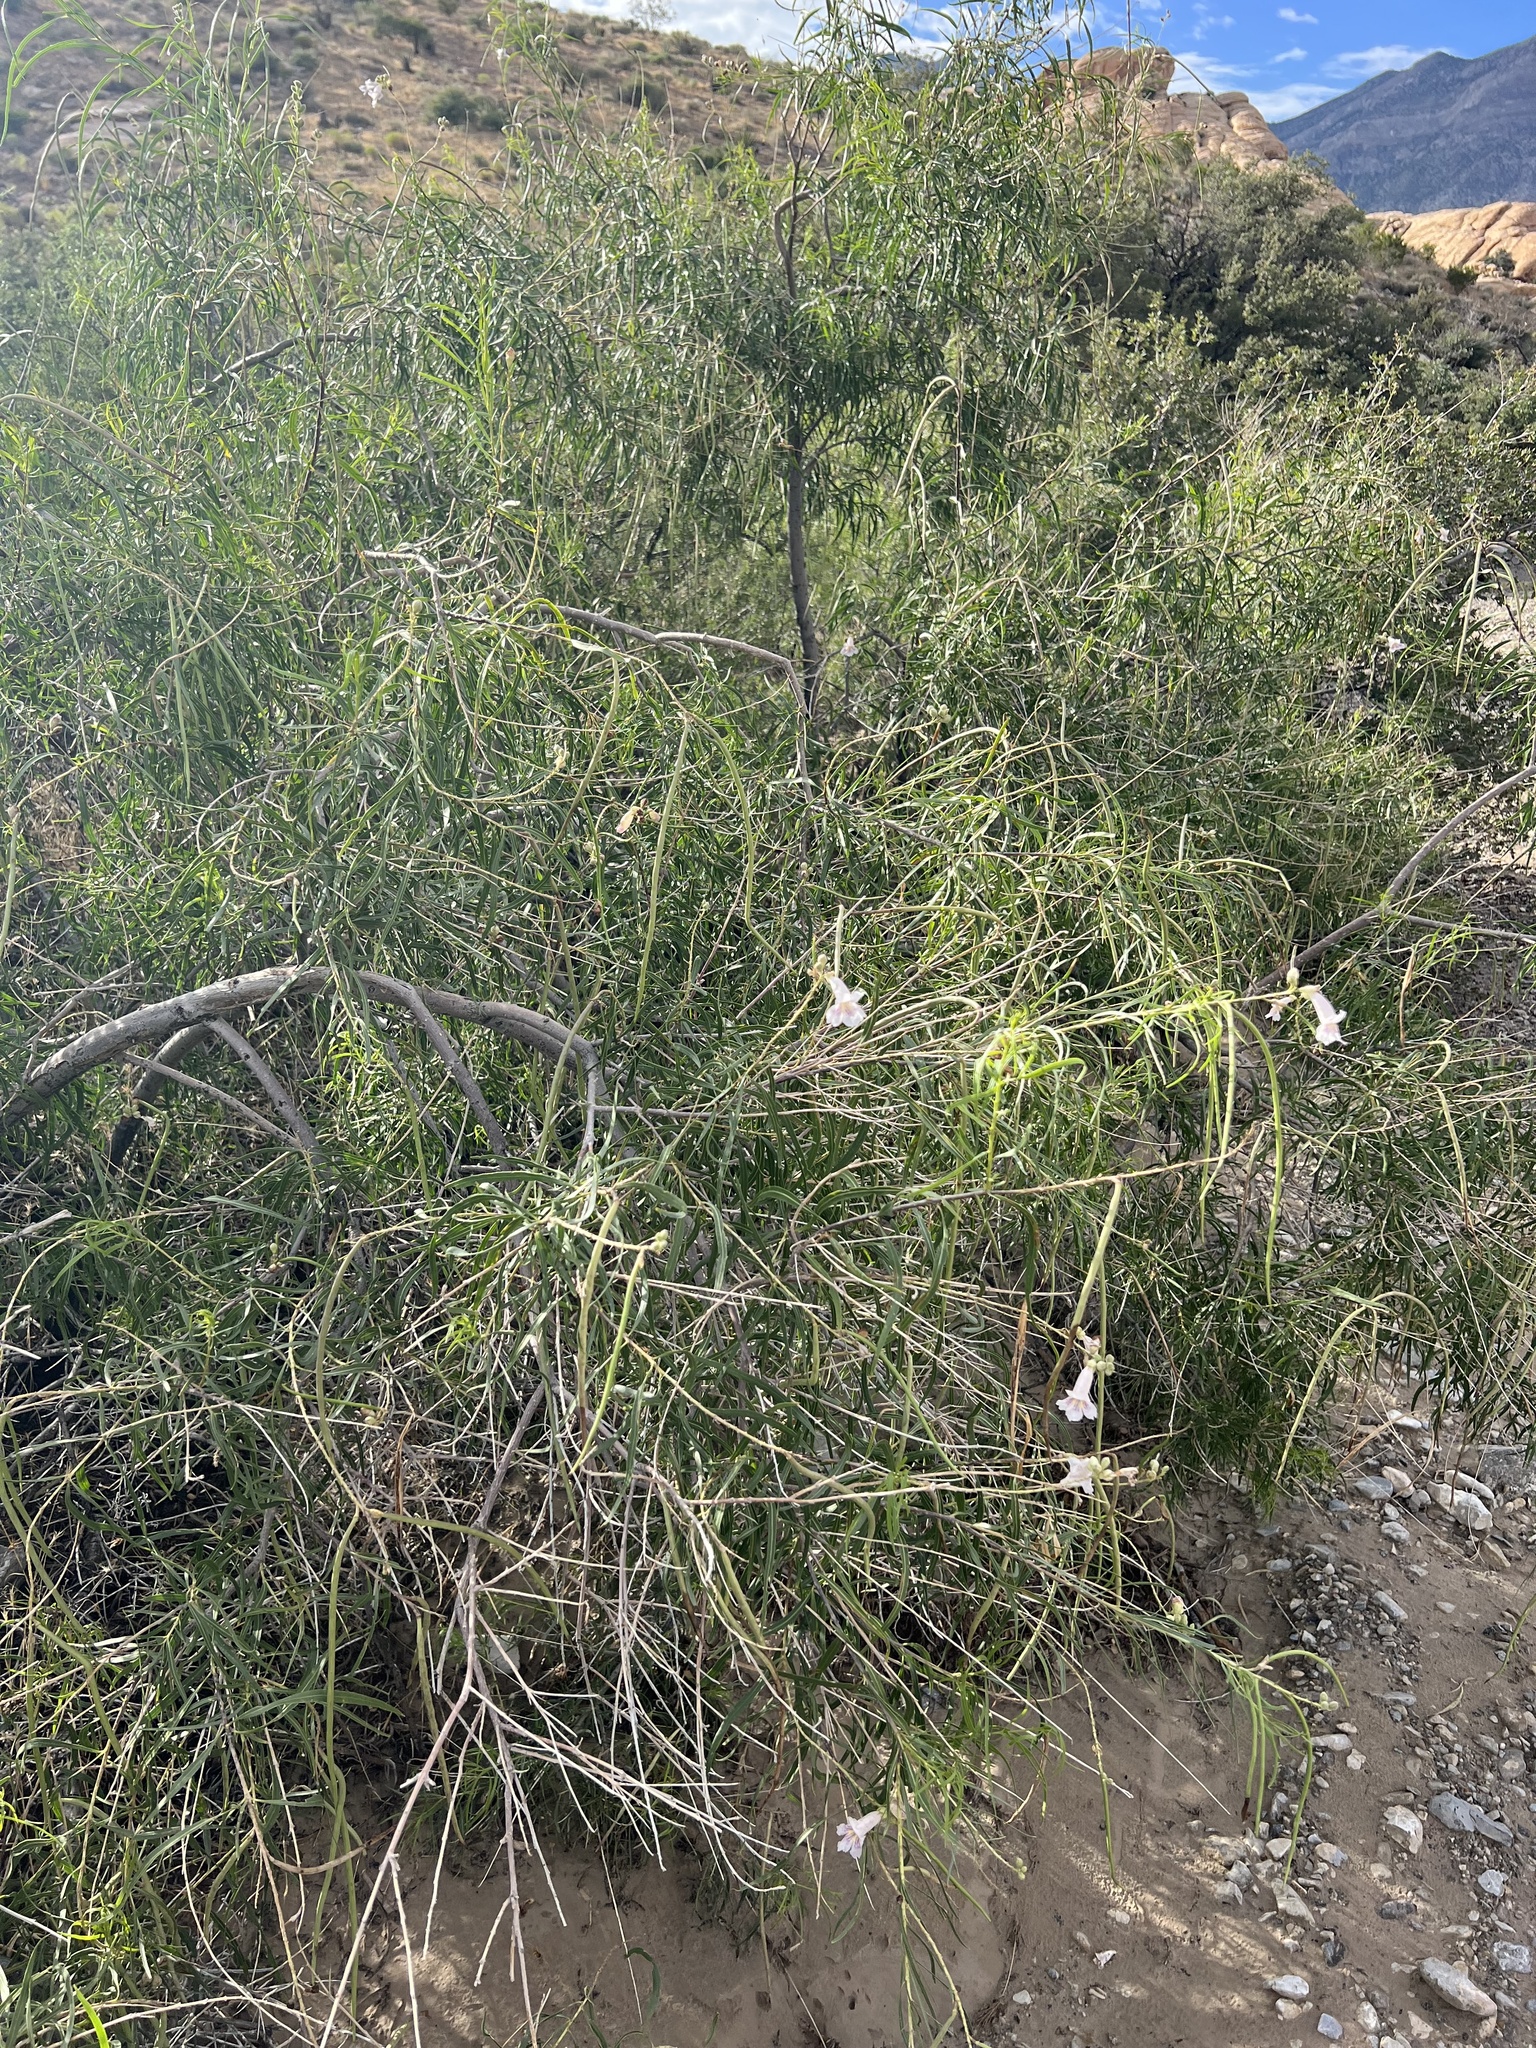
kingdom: Plantae
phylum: Tracheophyta
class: Magnoliopsida
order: Lamiales
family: Bignoniaceae
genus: Chilopsis
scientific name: Chilopsis linearis
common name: Desert-willow
